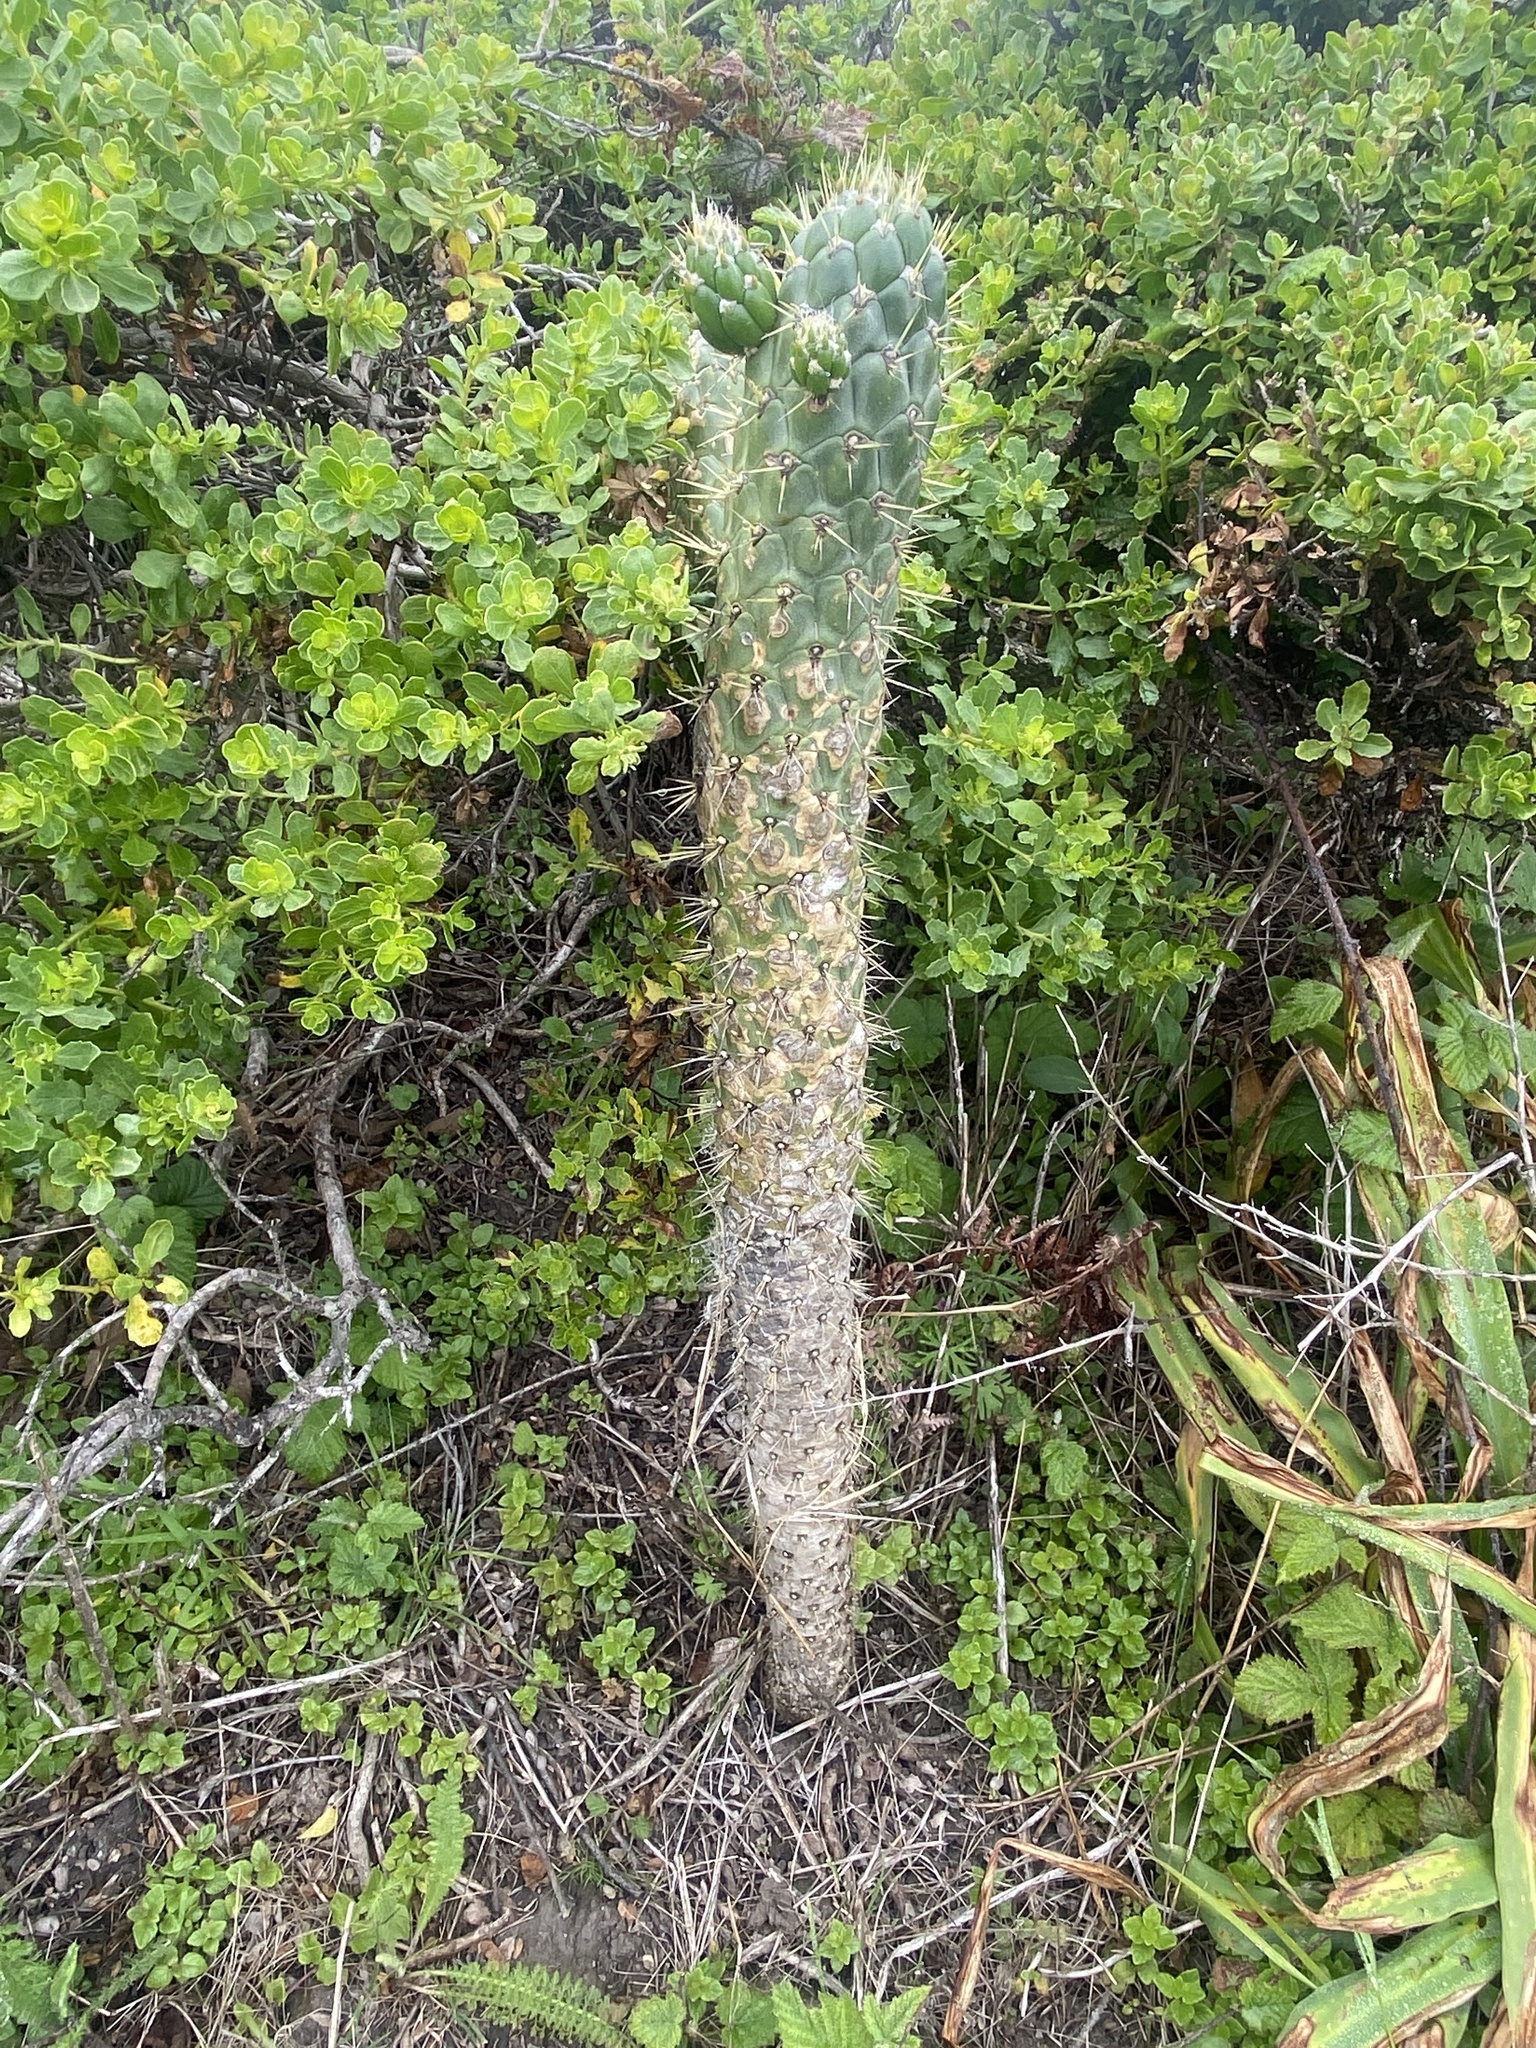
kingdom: Plantae
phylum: Tracheophyta
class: Magnoliopsida
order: Caryophyllales
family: Cactaceae
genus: Austrocylindropuntia
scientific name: Austrocylindropuntia cylindrica
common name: Cane cactus
